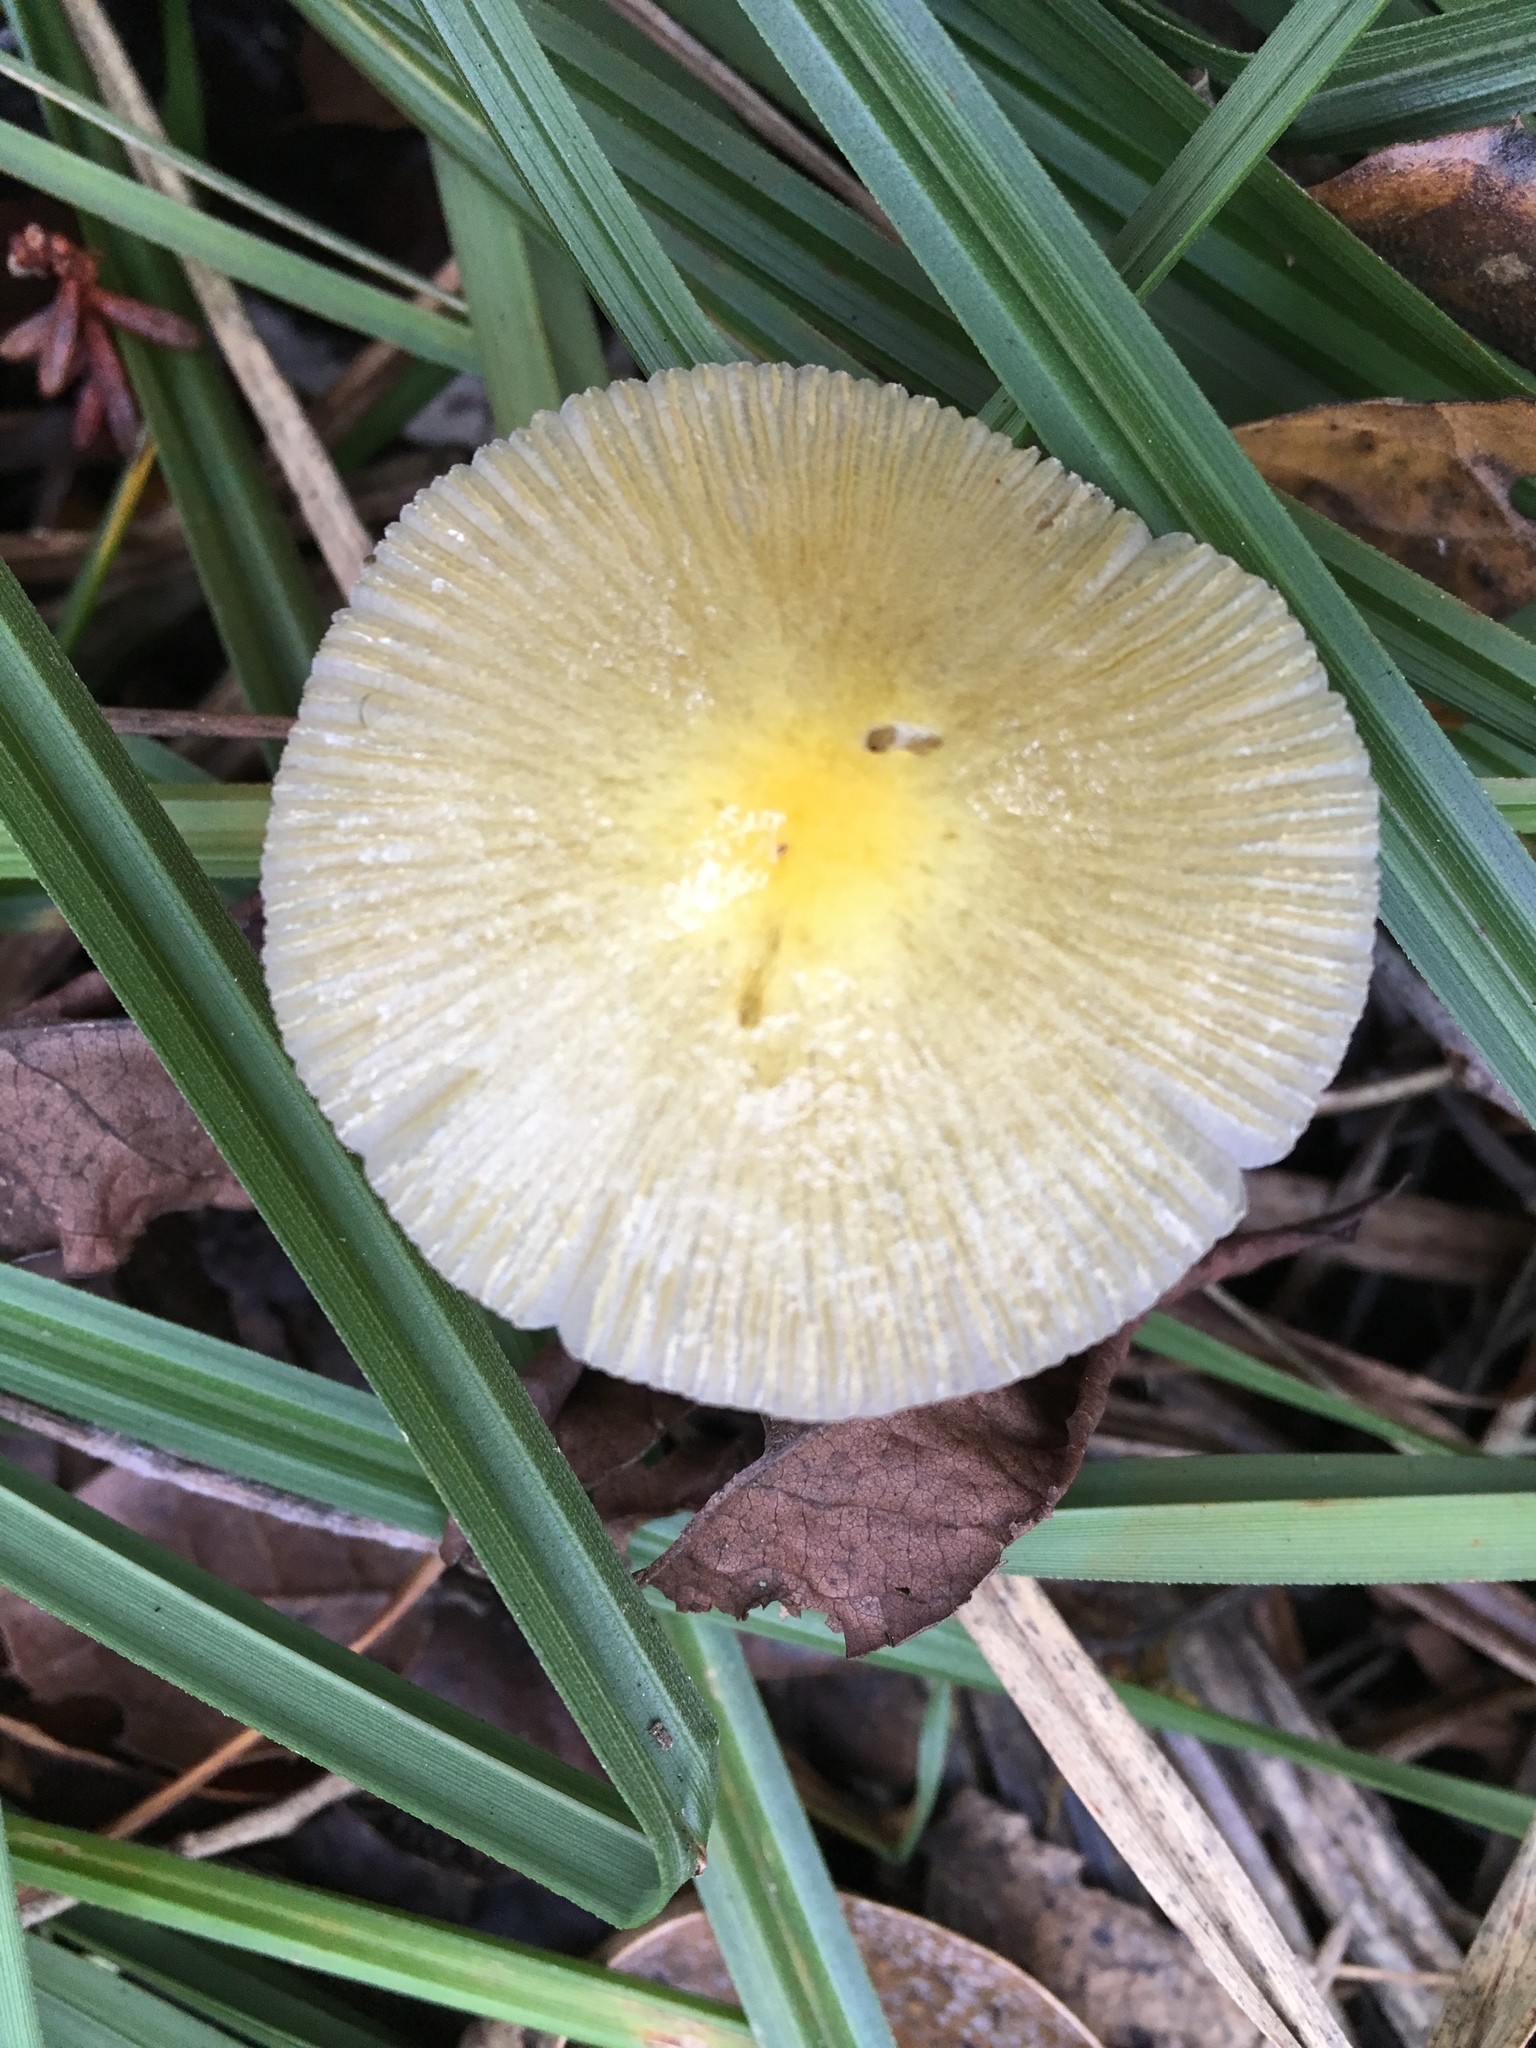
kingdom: Fungi
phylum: Basidiomycota
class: Agaricomycetes
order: Agaricales
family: Bolbitiaceae
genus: Bolbitius
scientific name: Bolbitius titubans
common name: Yellow fieldcap
